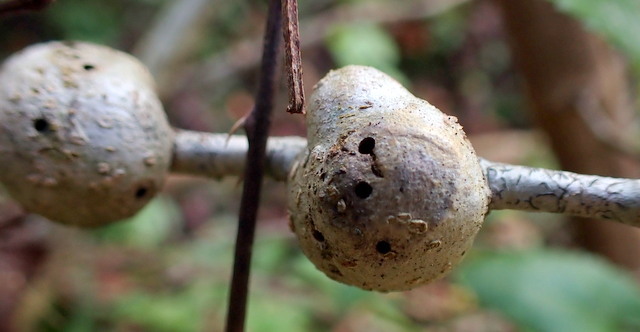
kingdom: Animalia
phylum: Arthropoda
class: Insecta
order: Hymenoptera
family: Cynipidae
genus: Callirhytis
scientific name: Callirhytis
